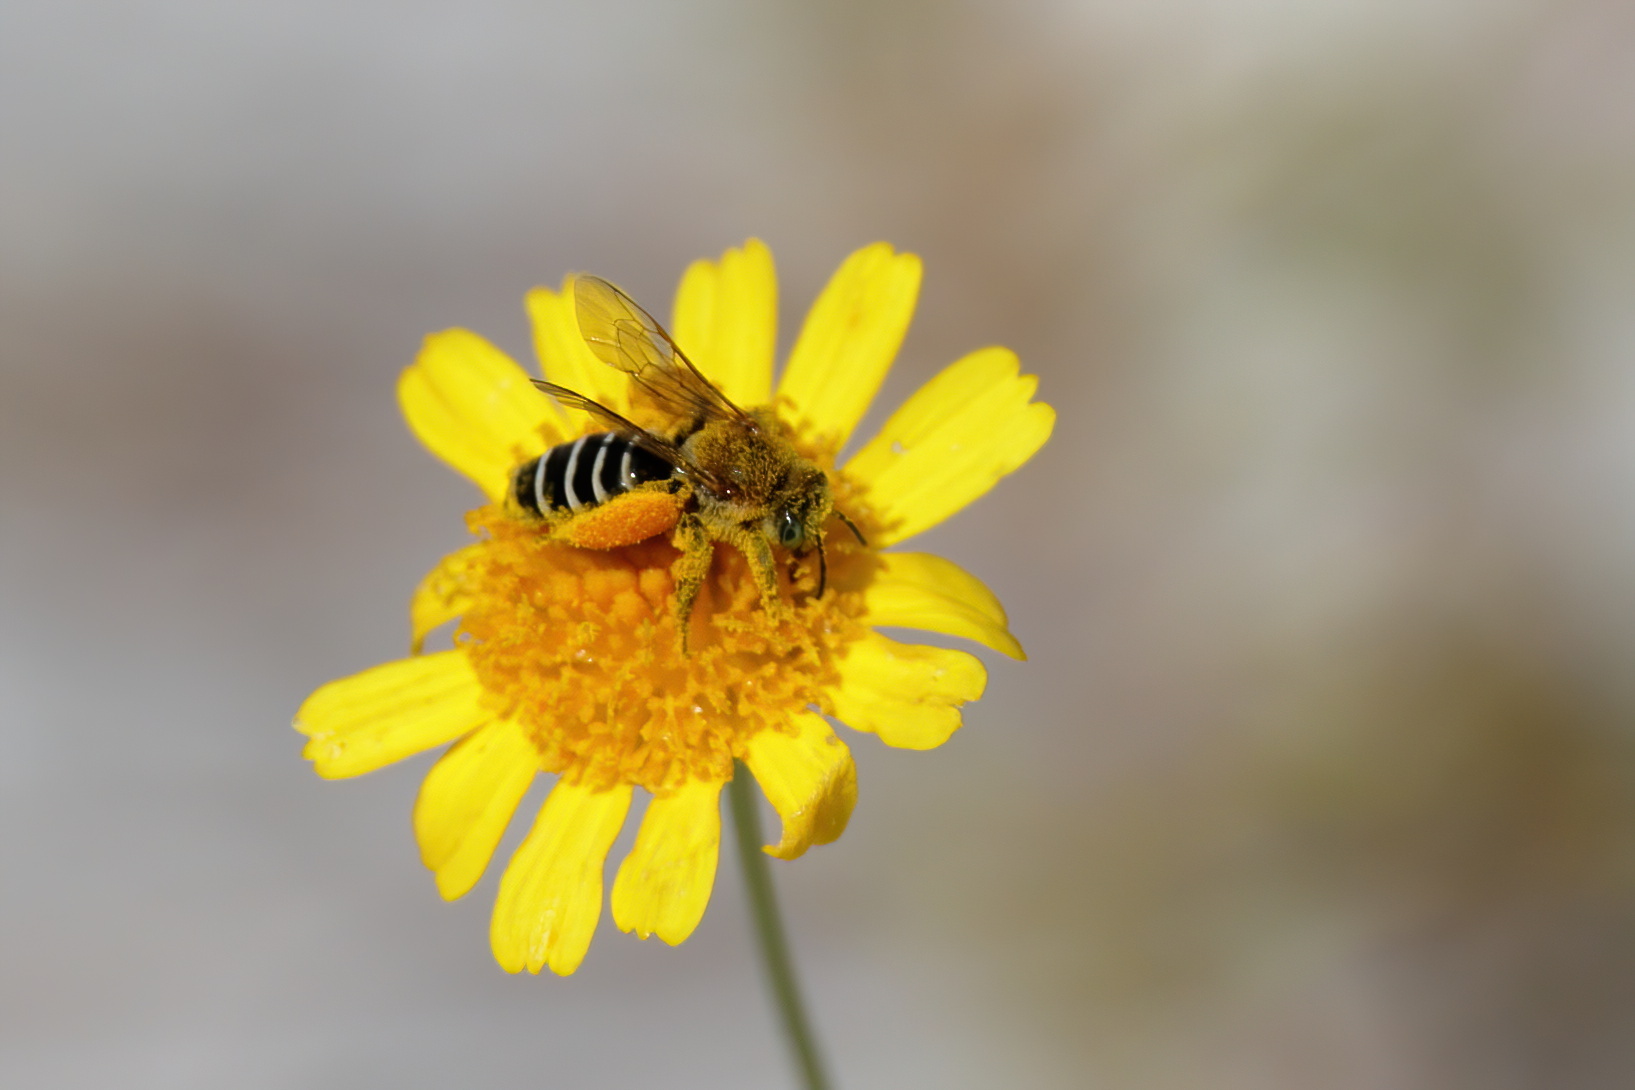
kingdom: Animalia
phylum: Arthropoda
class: Insecta
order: Hymenoptera
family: Melittidae
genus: Hesperapis
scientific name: Hesperapis oraria
